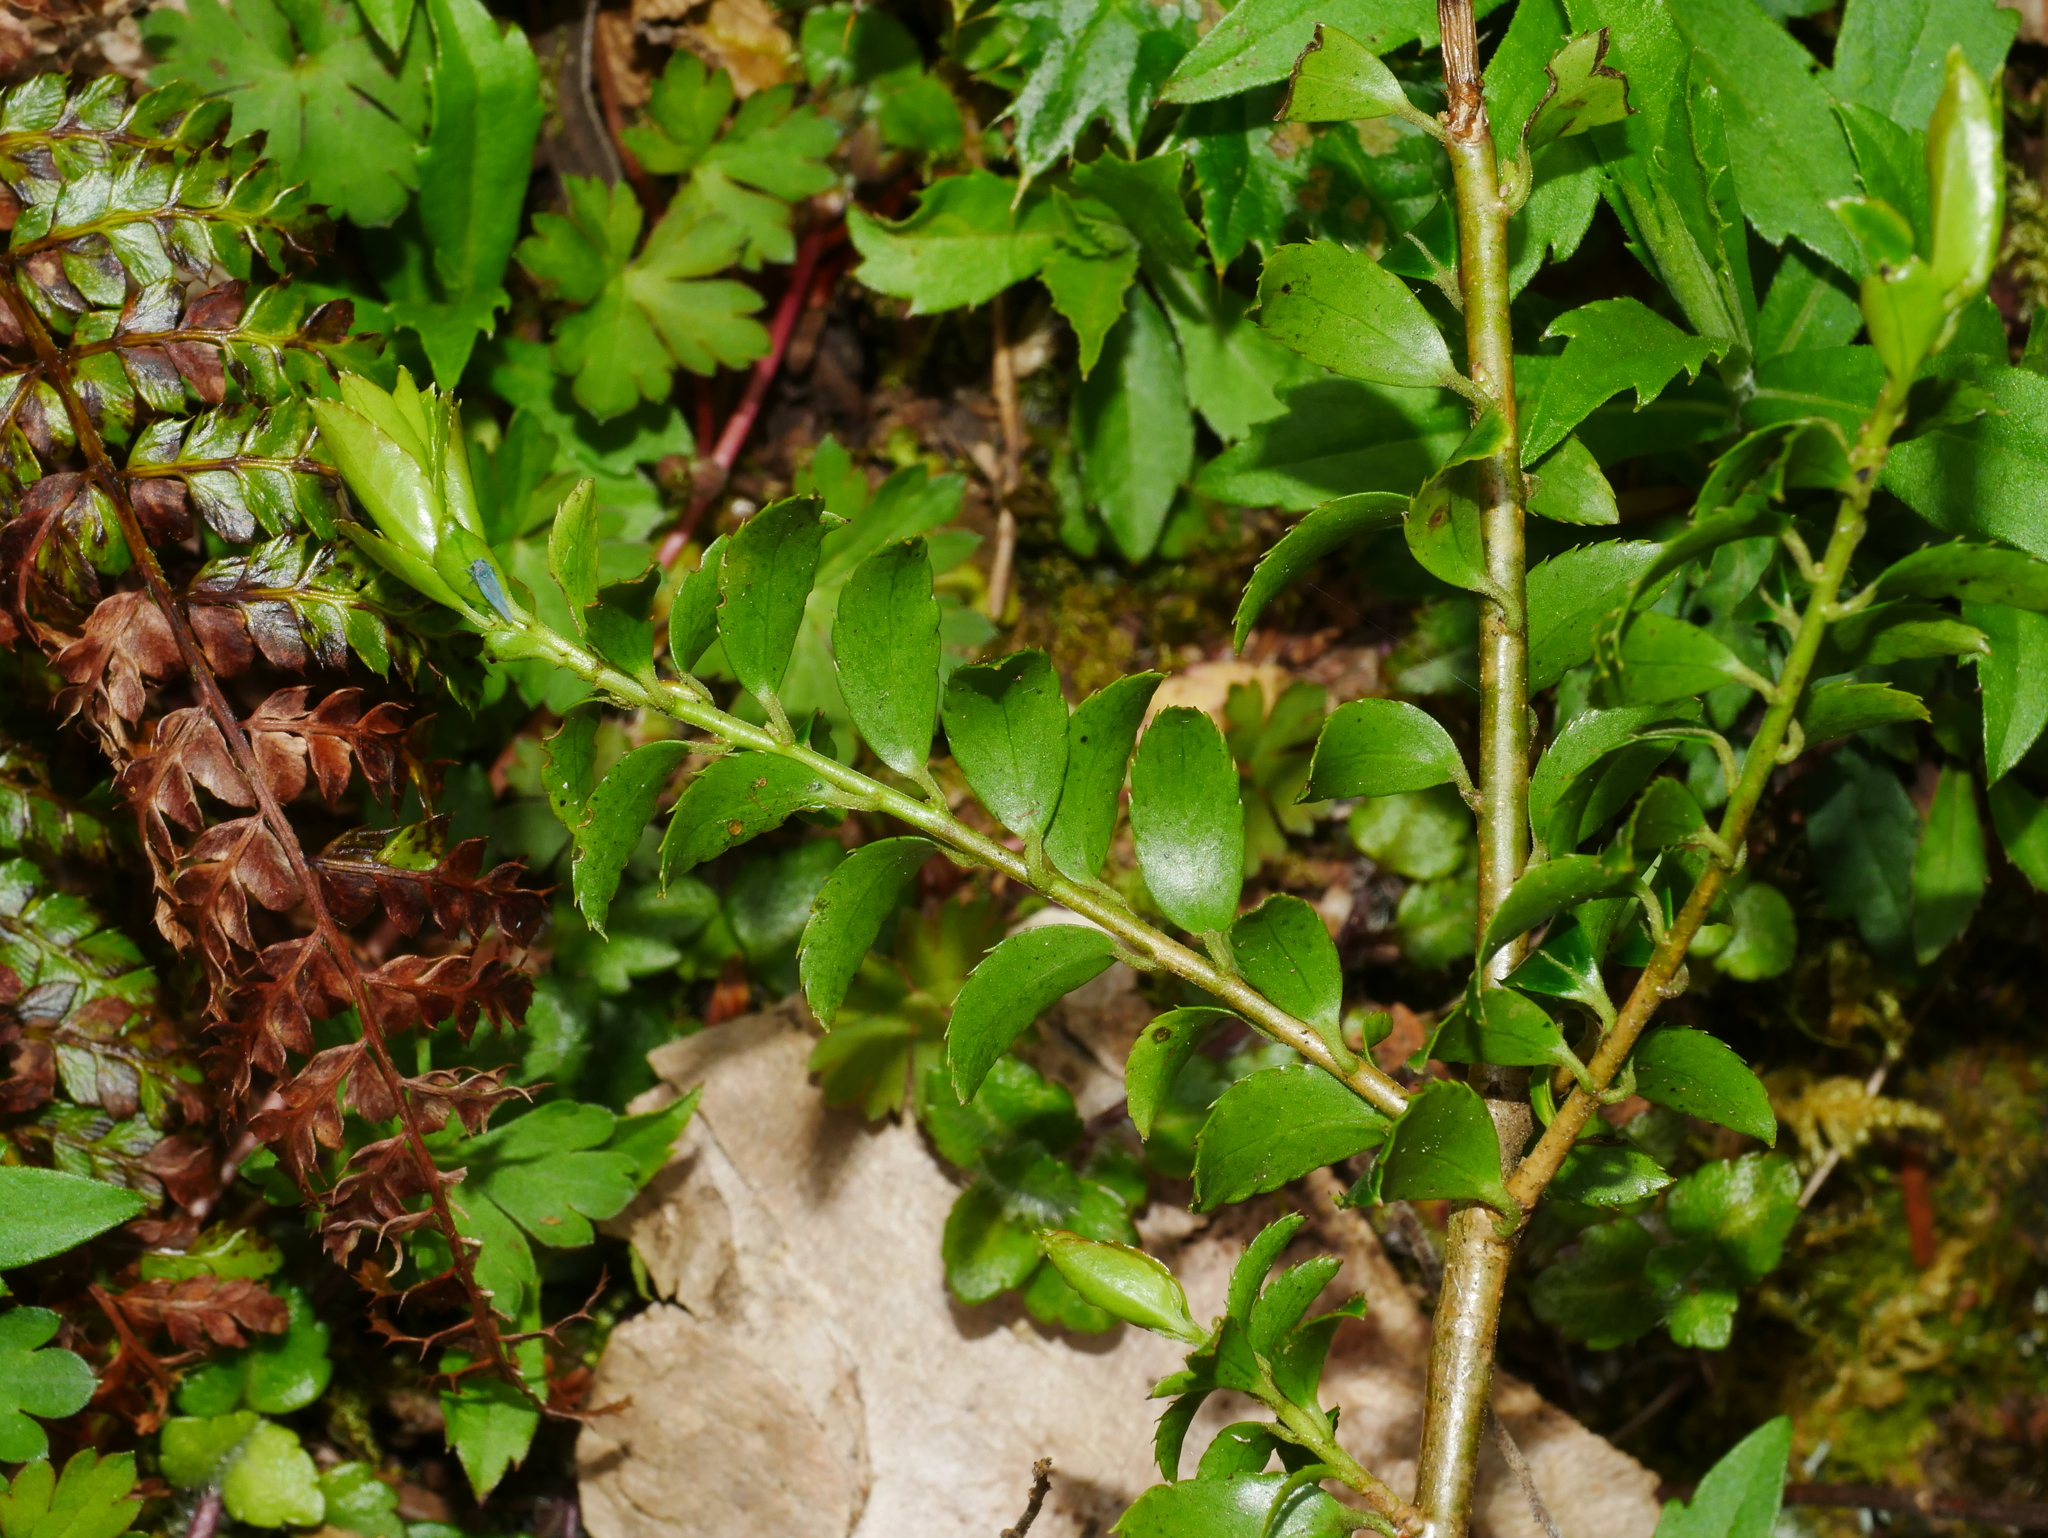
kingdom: Plantae
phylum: Tracheophyta
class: Magnoliopsida
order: Aquifoliales
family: Aquifoliaceae
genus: Ilex
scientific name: Ilex yunnanensis
